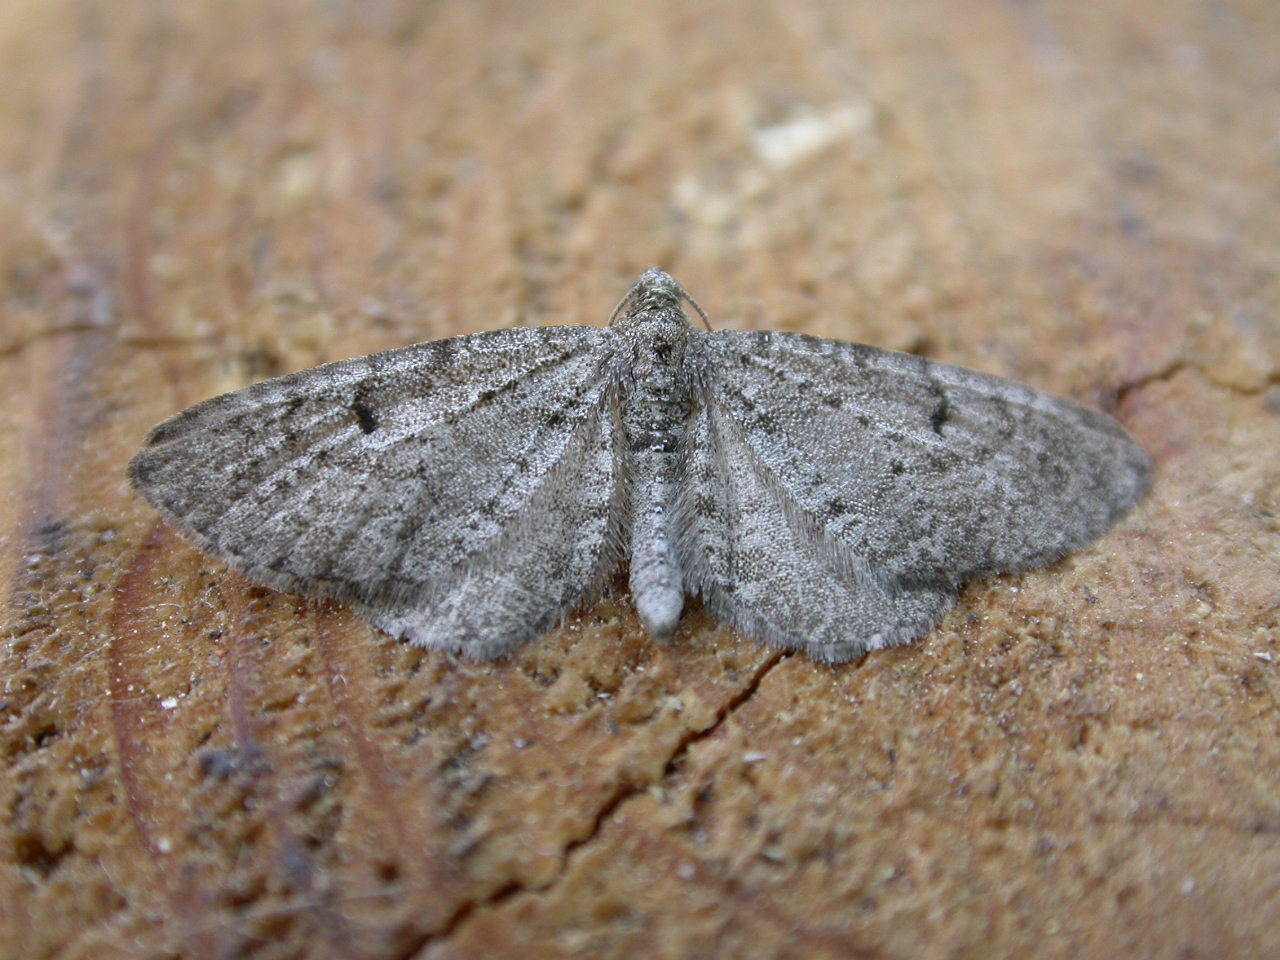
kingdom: Animalia
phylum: Arthropoda
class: Insecta
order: Lepidoptera
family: Geometridae
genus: Eupithecia
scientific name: Eupithecia intricata
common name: Freyers pug
